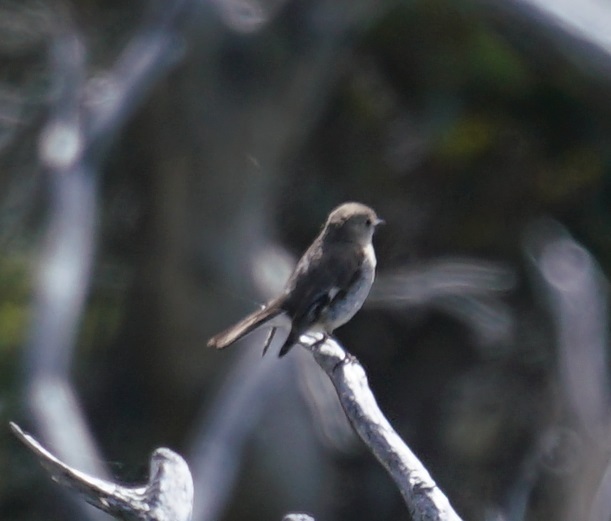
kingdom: Animalia
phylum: Chordata
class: Aves
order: Passeriformes
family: Petroicidae
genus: Petroica
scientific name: Petroica phoenicea
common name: Flame robin
